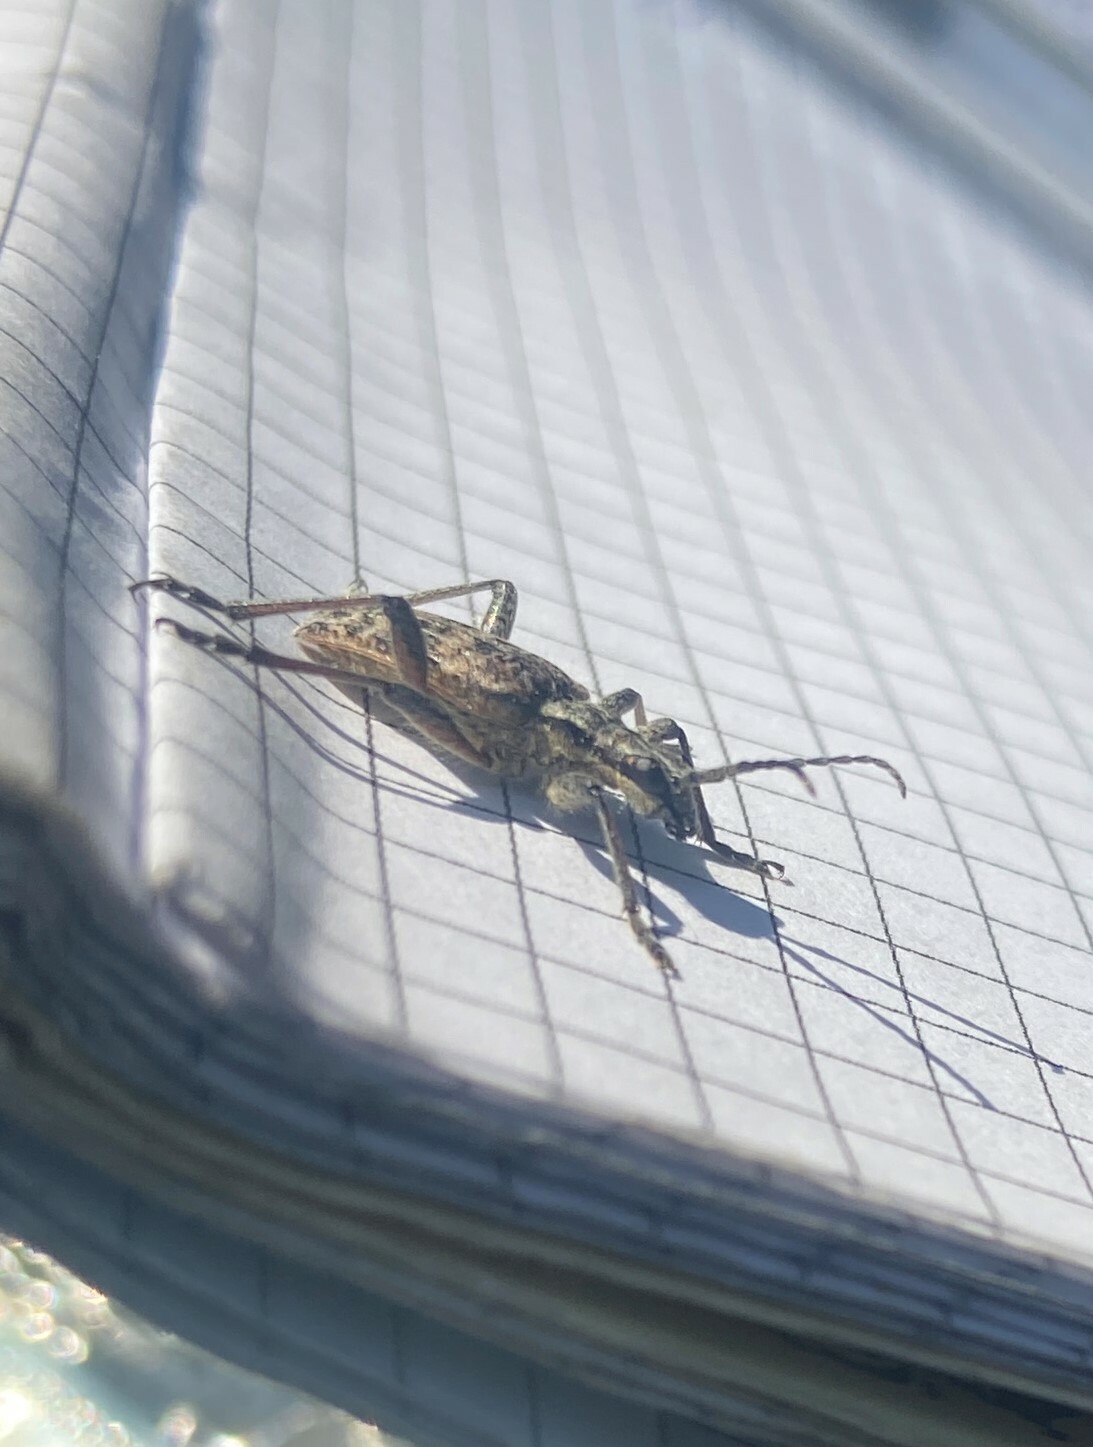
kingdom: Animalia
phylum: Arthropoda
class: Insecta
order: Coleoptera
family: Cerambycidae
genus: Rhagium
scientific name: Rhagium inquisitor
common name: Ribbed pine borer
